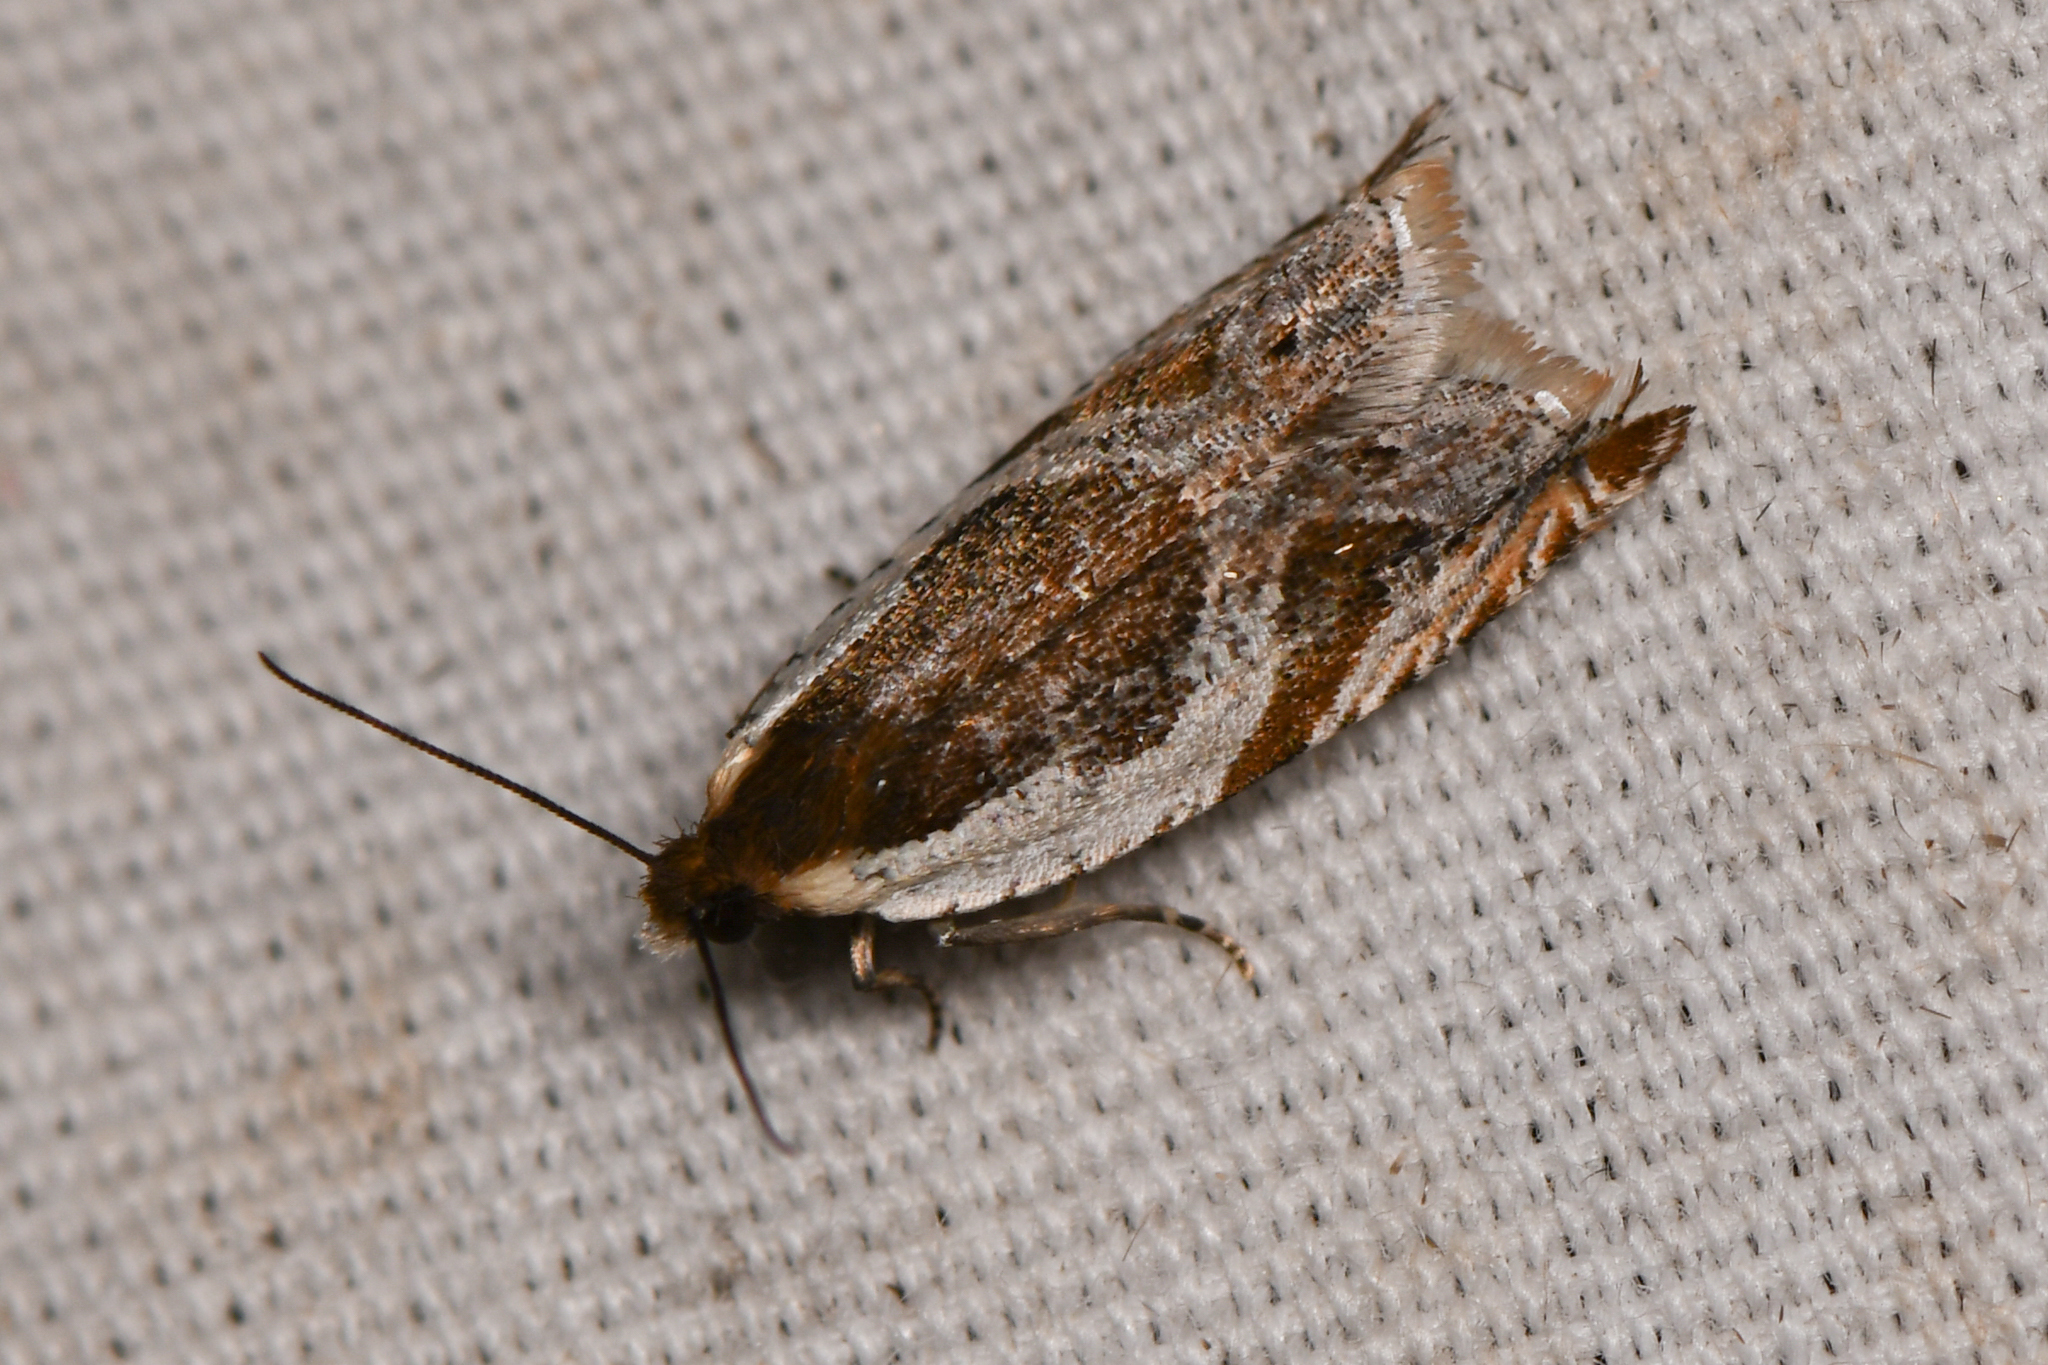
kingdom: Animalia
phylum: Arthropoda
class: Insecta
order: Lepidoptera
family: Tortricidae
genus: Ancylis
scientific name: Ancylis columbiana
